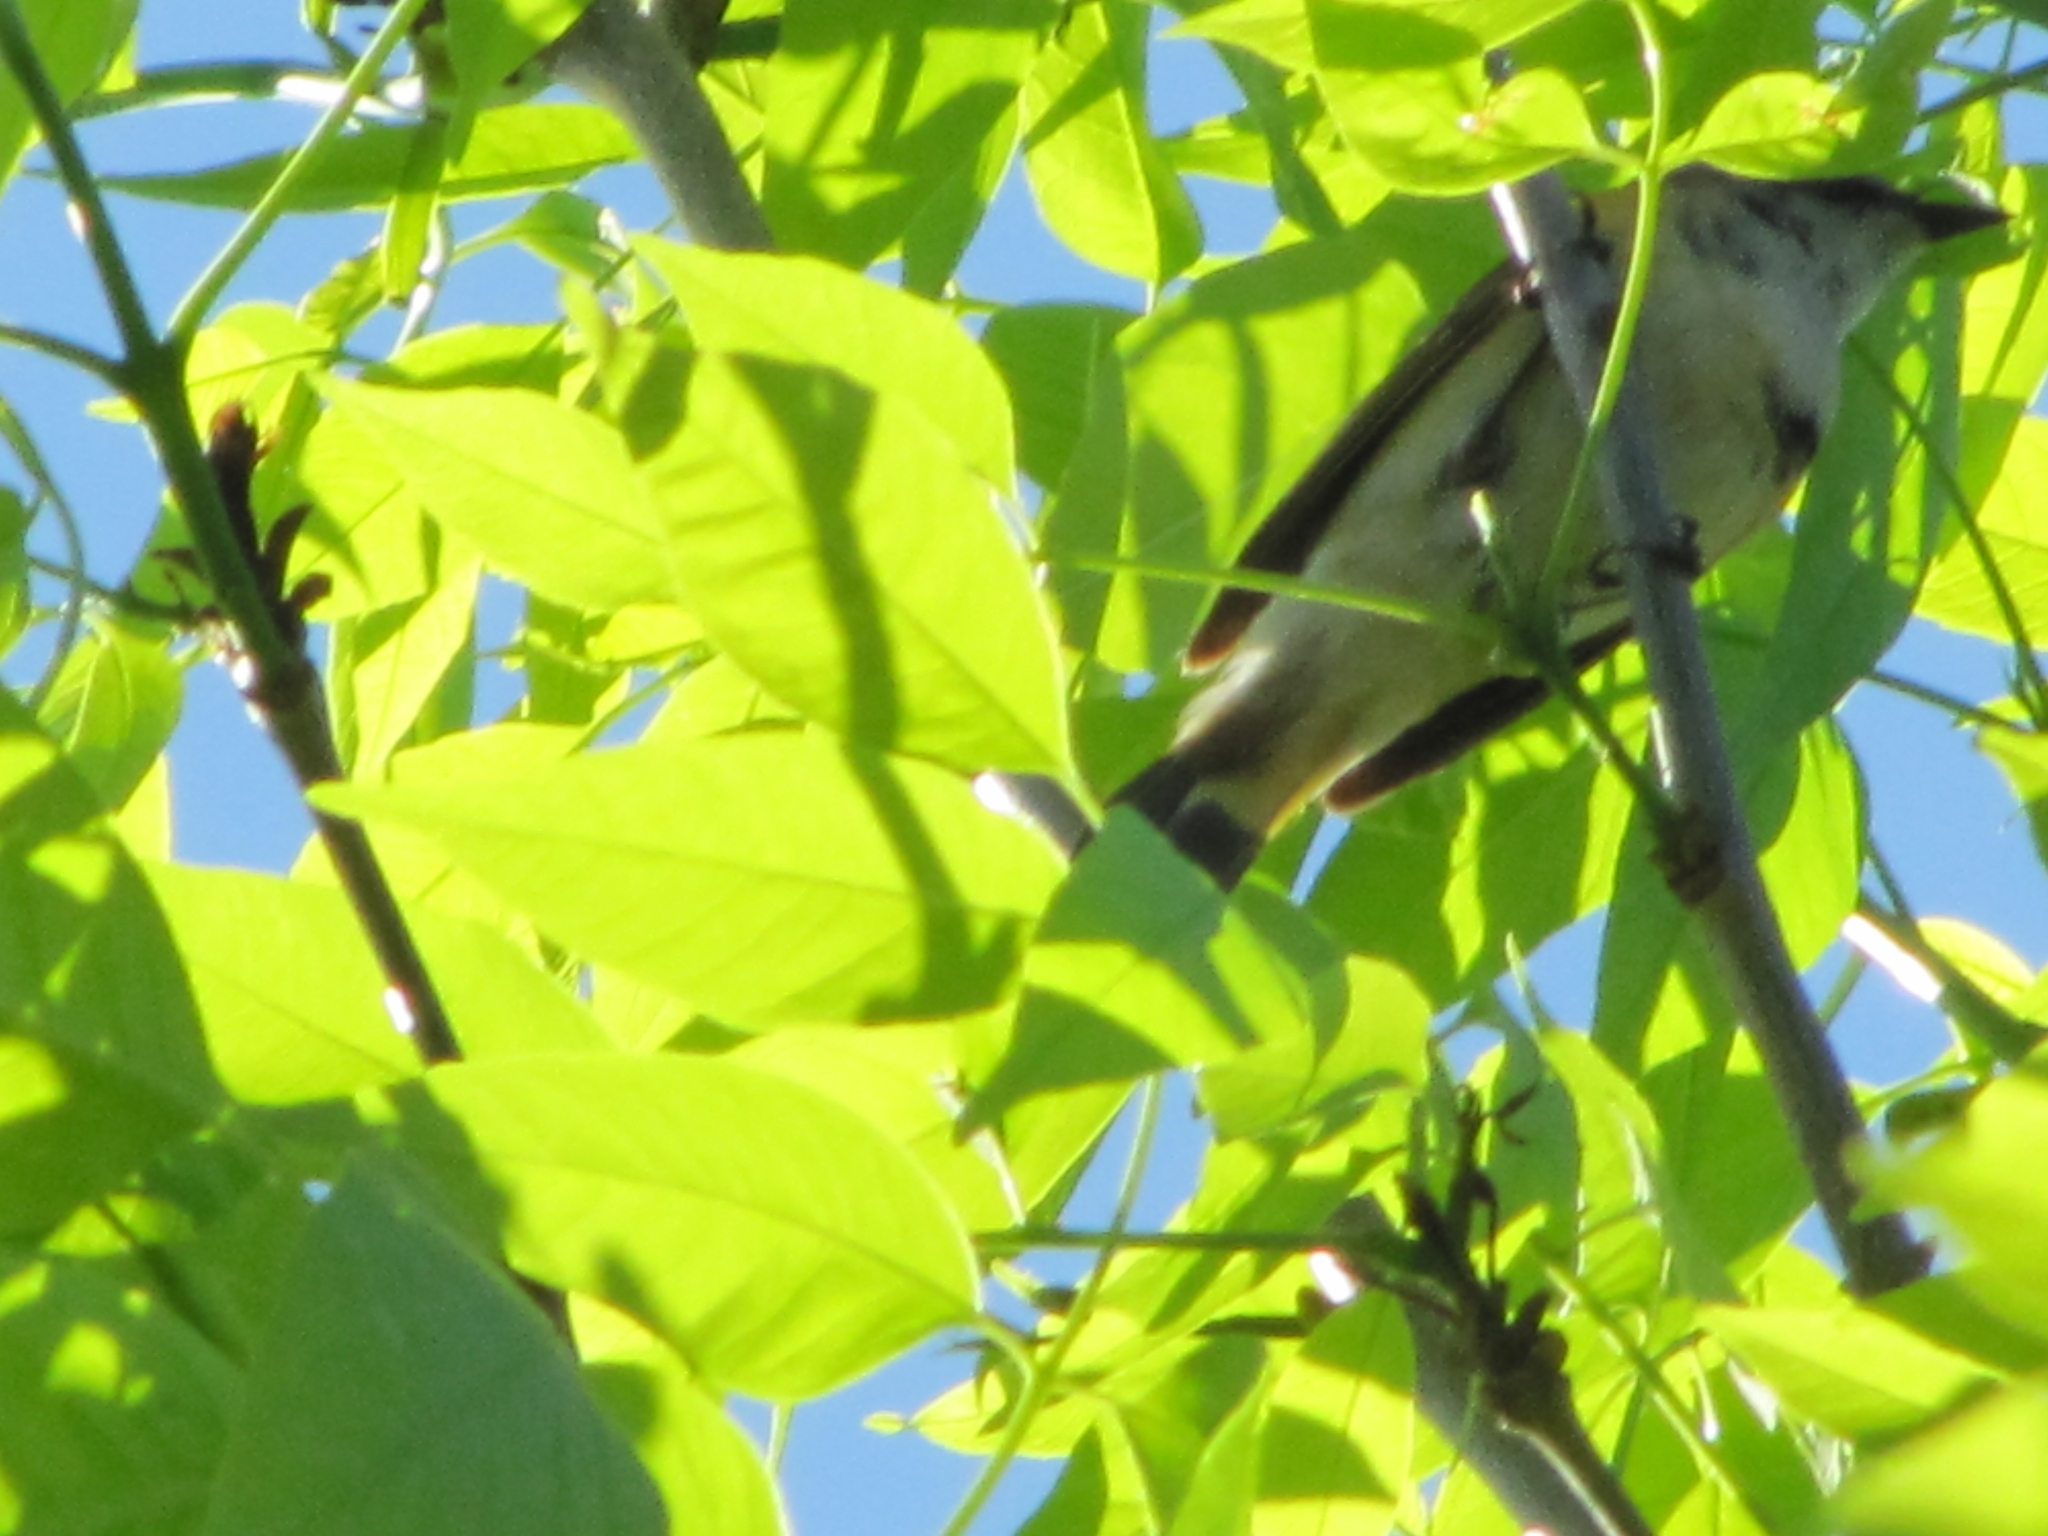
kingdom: Animalia
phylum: Chordata
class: Aves
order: Passeriformes
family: Parulidae
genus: Setophaga
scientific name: Setophaga ruticilla
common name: American redstart
